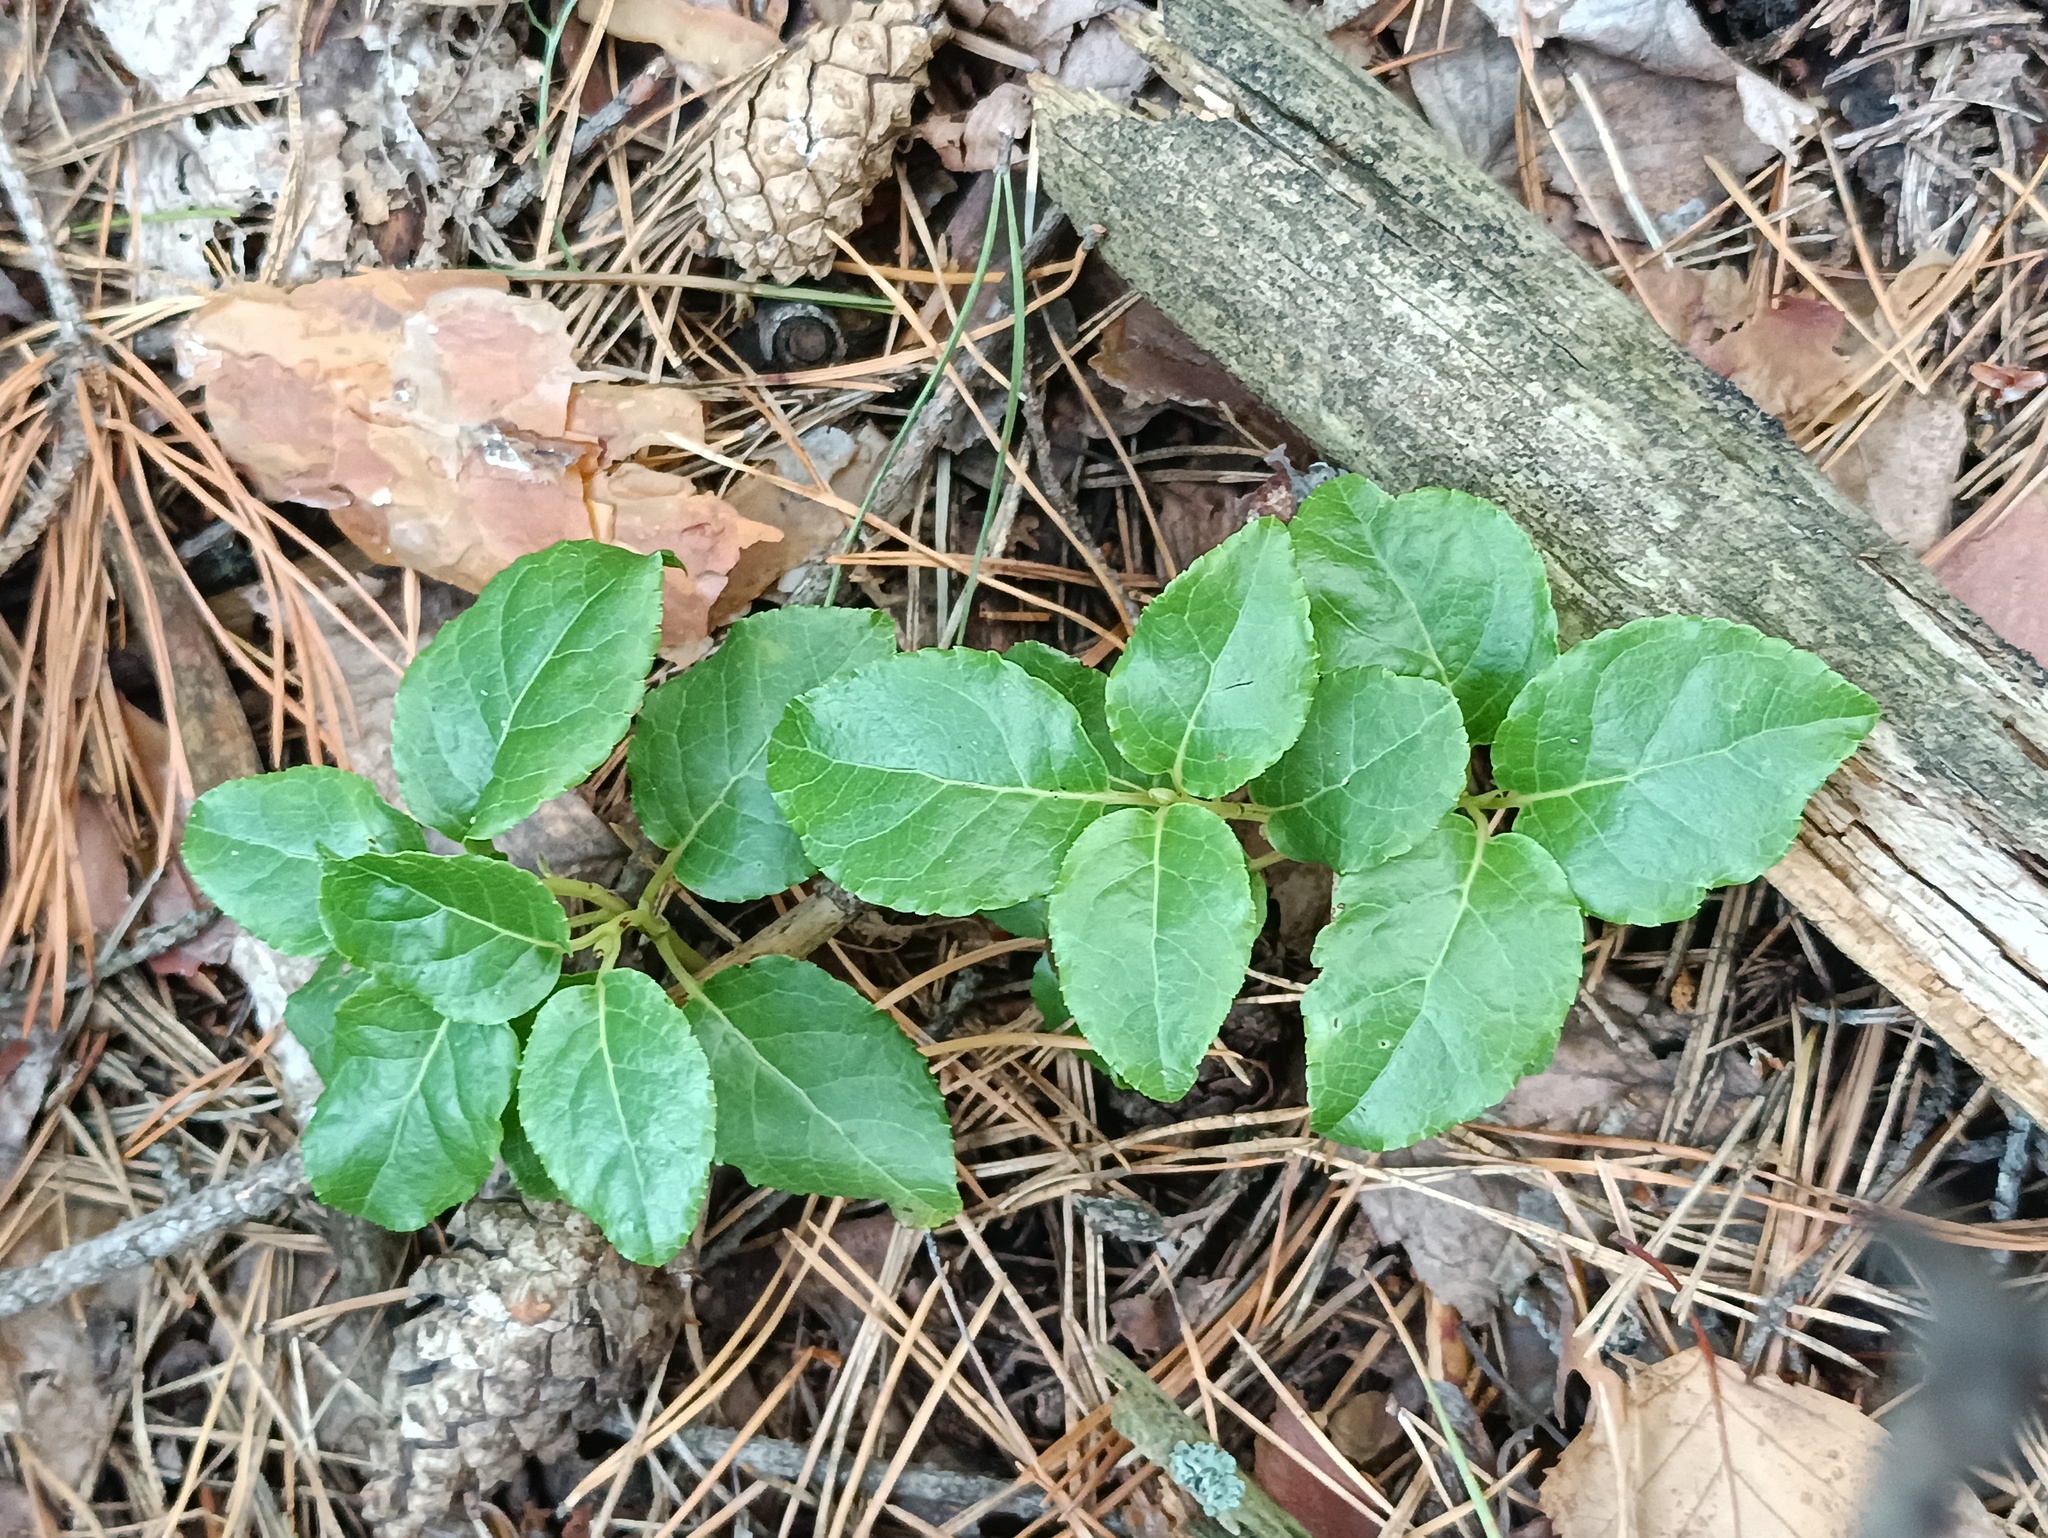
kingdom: Plantae
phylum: Tracheophyta
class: Magnoliopsida
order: Ericales
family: Ericaceae
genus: Orthilia
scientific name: Orthilia secunda
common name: One-sided orthilia
